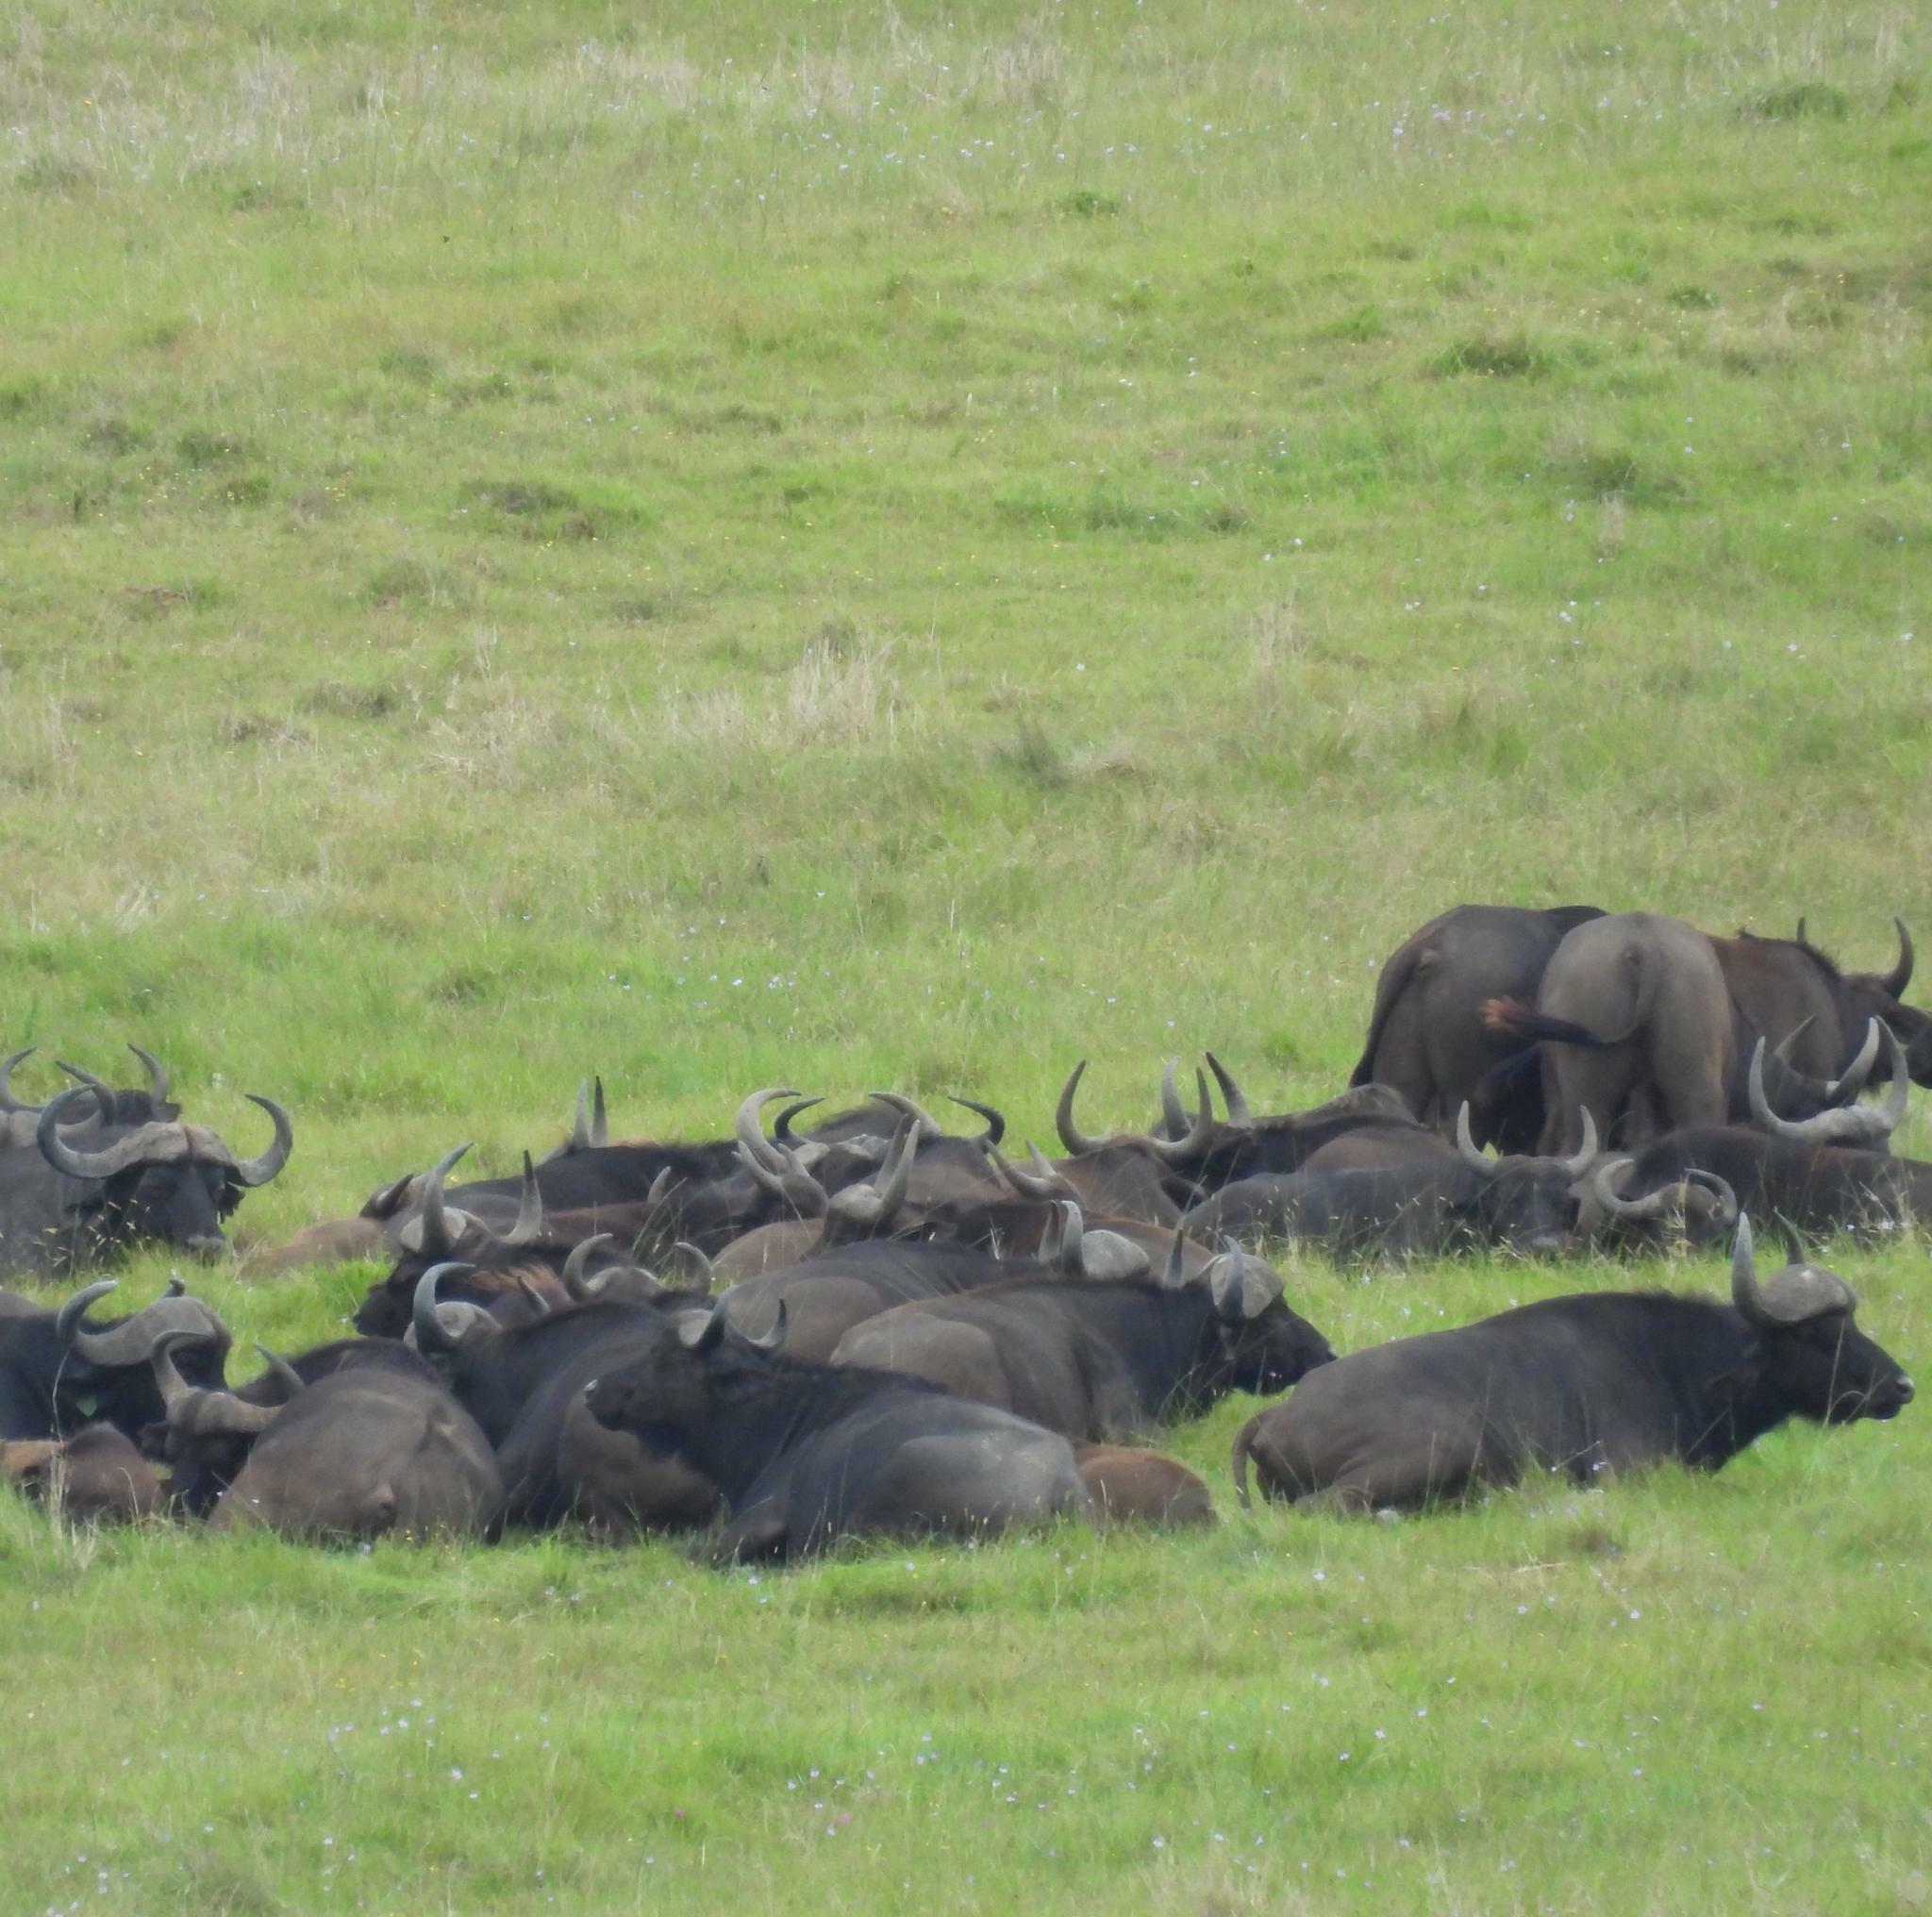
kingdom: Animalia
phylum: Chordata
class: Mammalia
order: Artiodactyla
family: Bovidae
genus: Syncerus
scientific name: Syncerus caffer
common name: African buffalo
